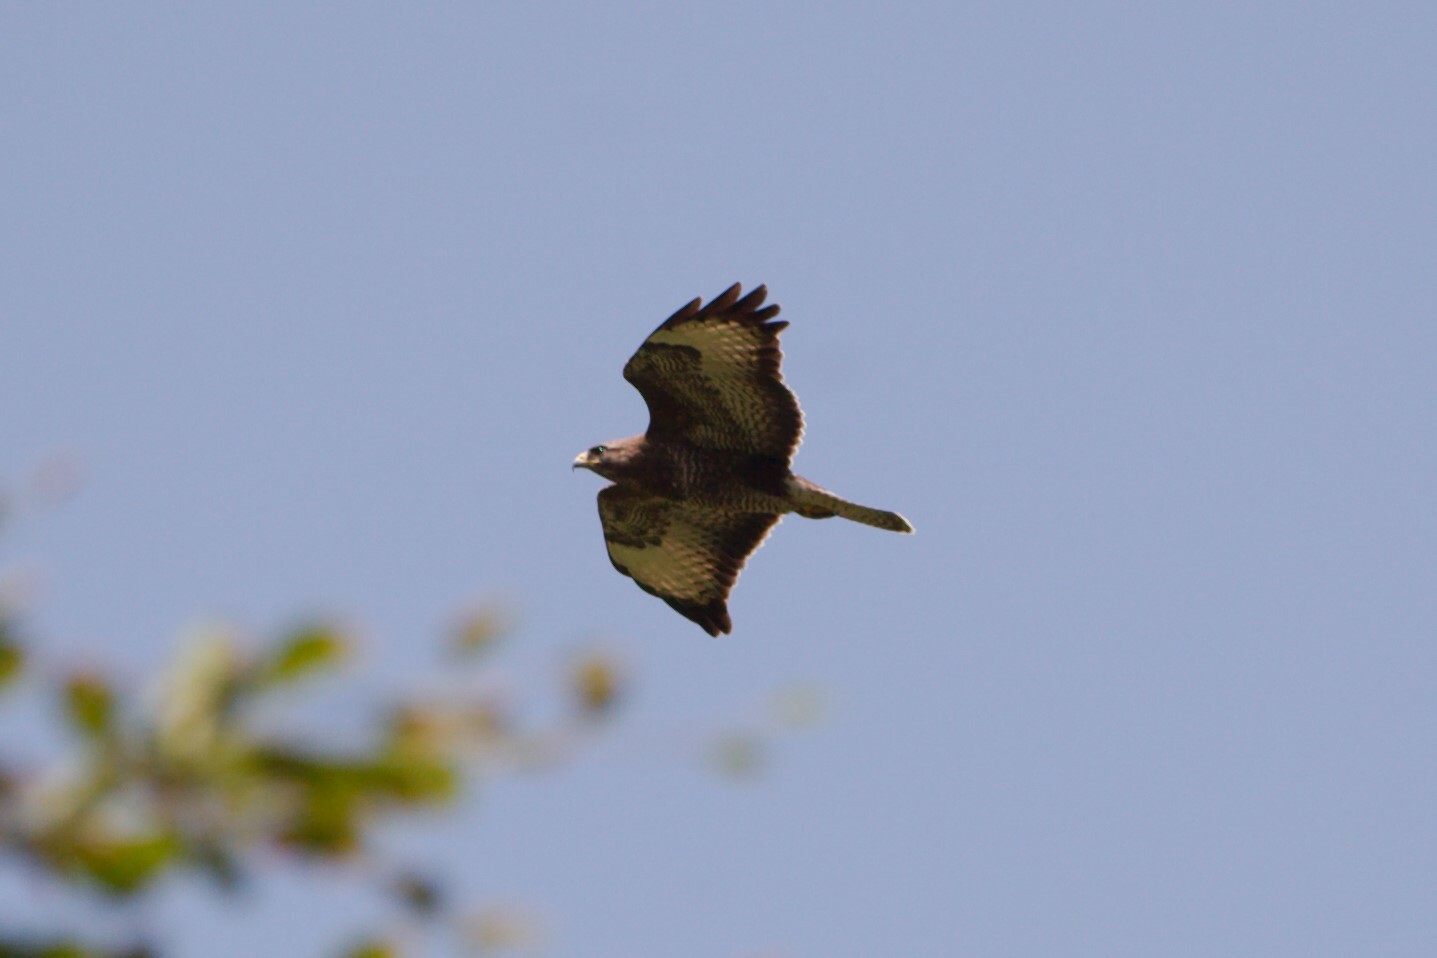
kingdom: Animalia
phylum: Chordata
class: Aves
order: Accipitriformes
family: Accipitridae
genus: Buteo
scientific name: Buteo buteo
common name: Common buzzard
